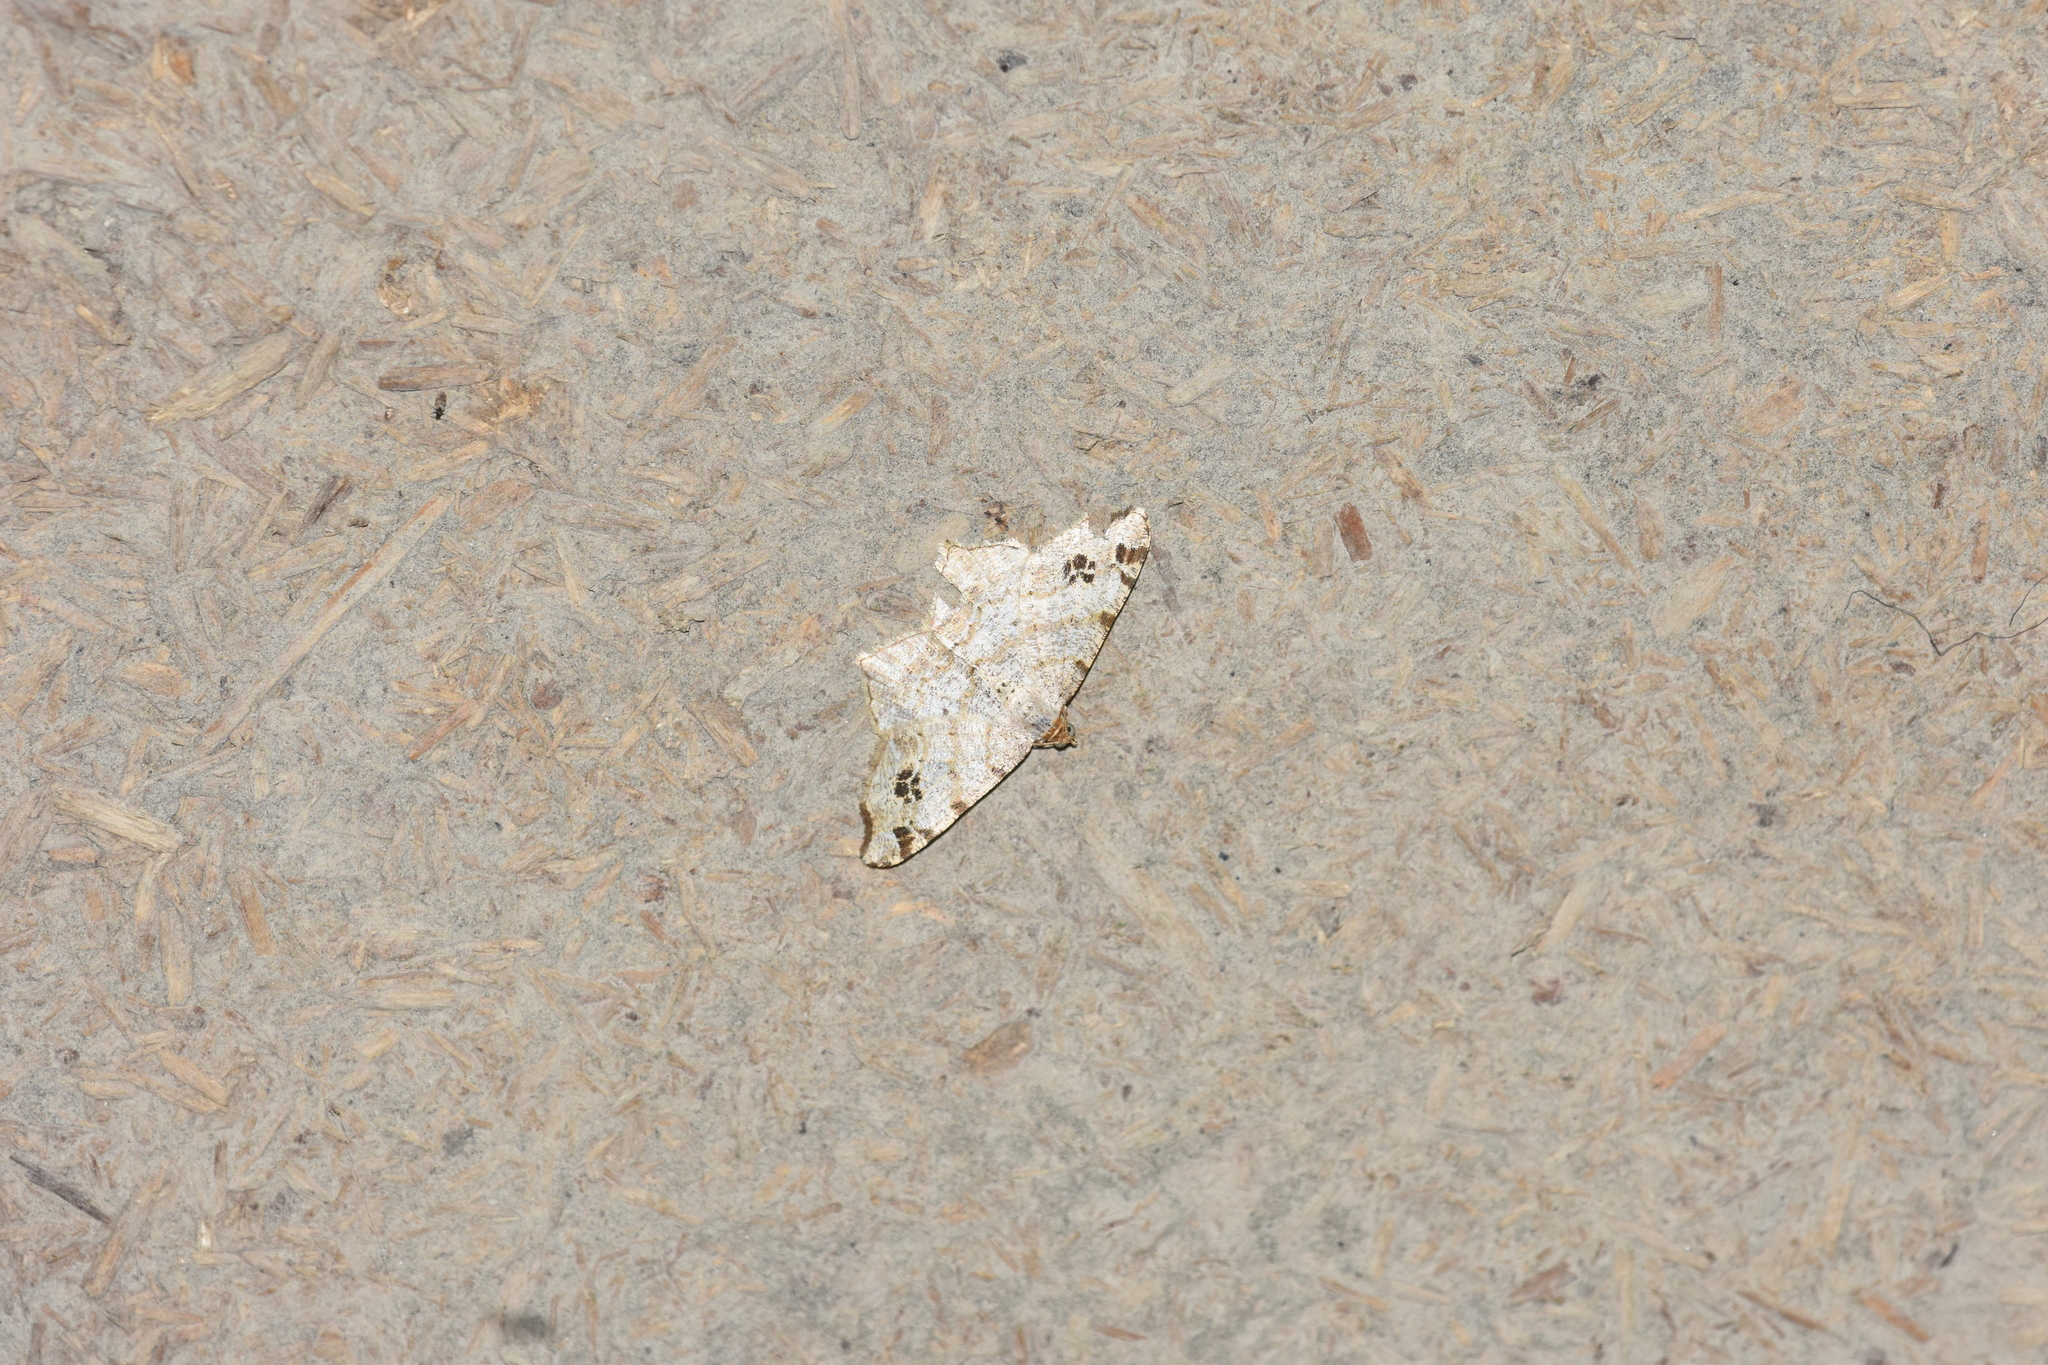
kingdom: Animalia
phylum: Arthropoda
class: Insecta
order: Lepidoptera
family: Geometridae
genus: Macaria
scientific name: Macaria alternata
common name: Sharp-angled peacock
